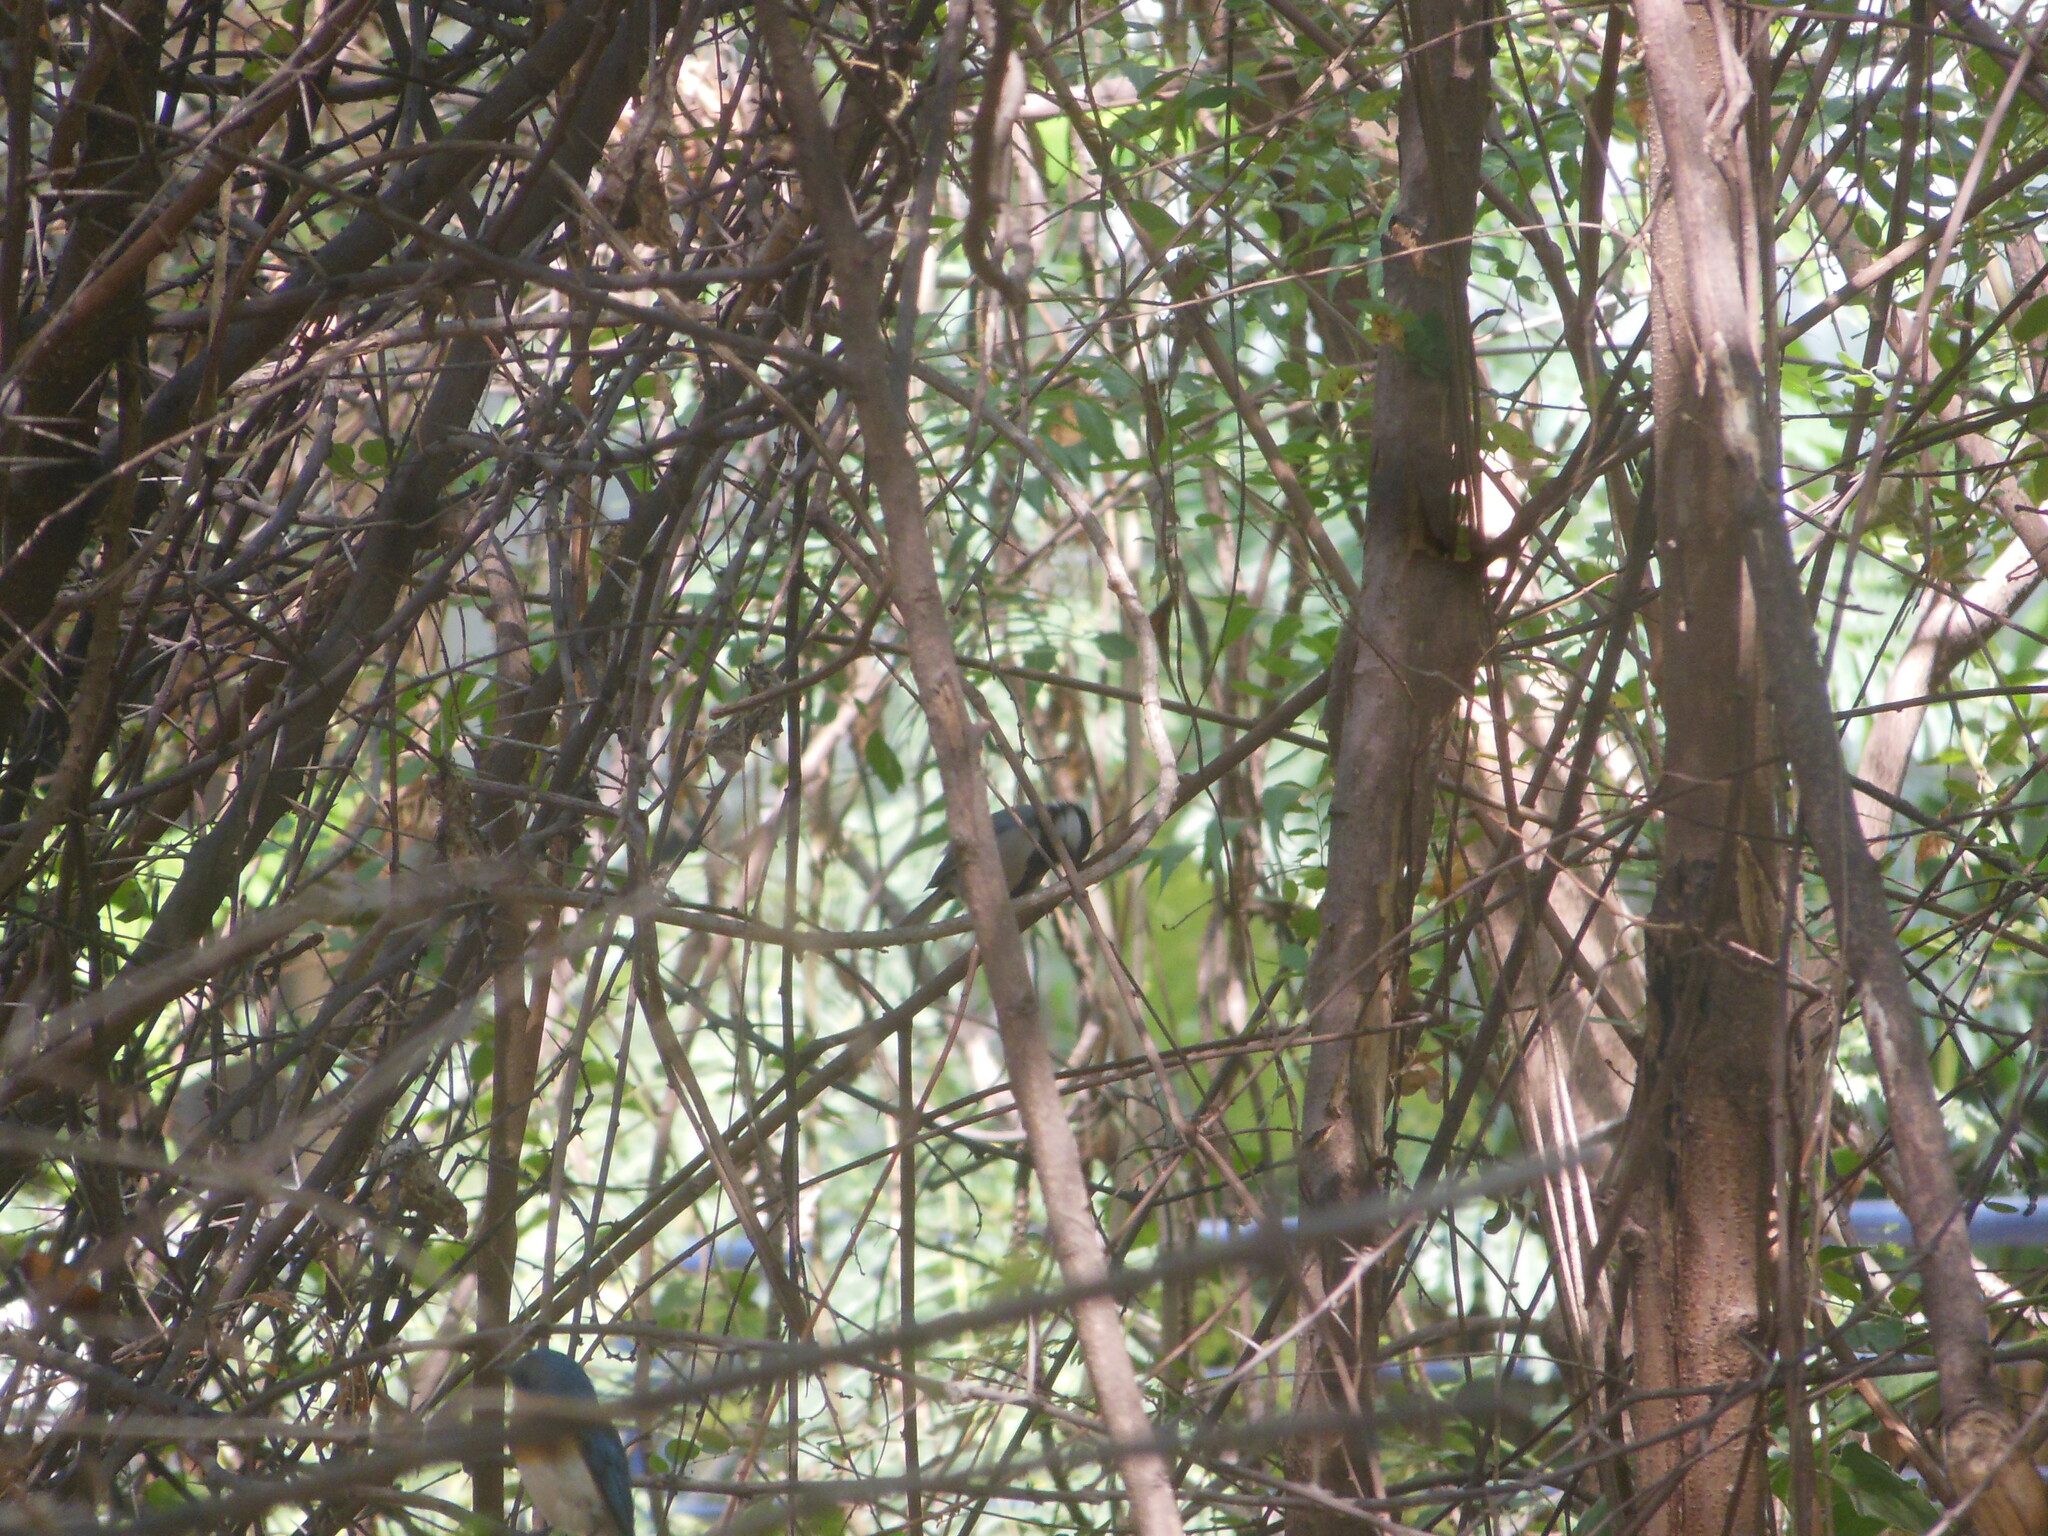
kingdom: Animalia
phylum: Chordata
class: Aves
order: Passeriformes
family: Paridae
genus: Parus
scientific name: Parus cinereus
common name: Cinereous tit
